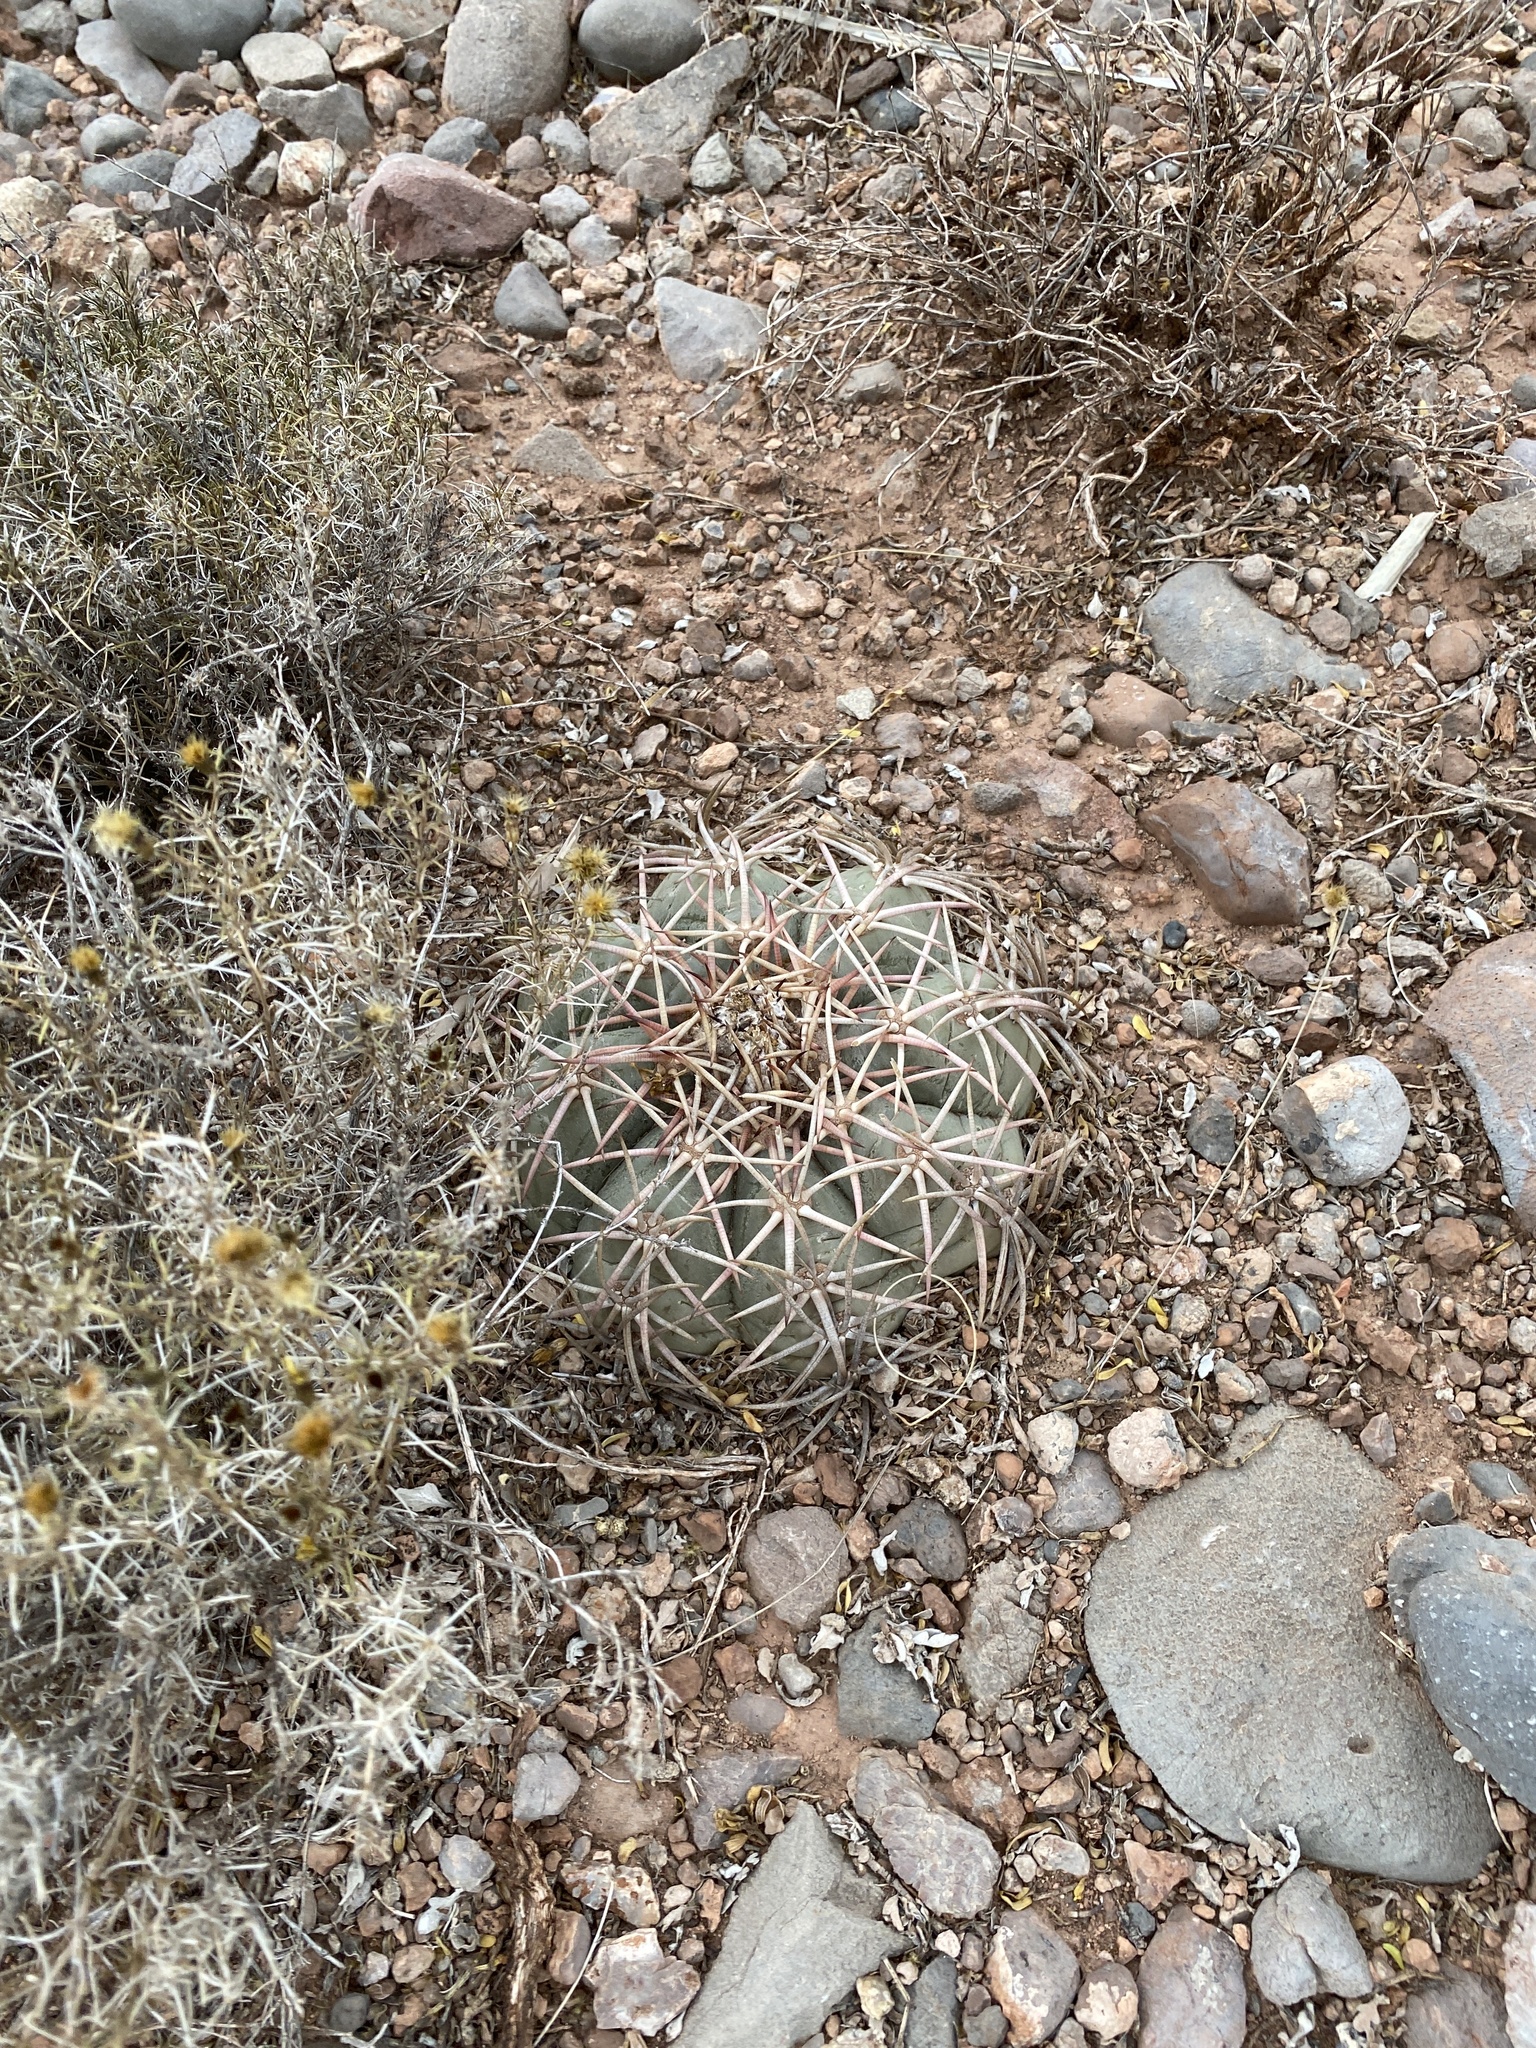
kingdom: Plantae
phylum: Tracheophyta
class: Magnoliopsida
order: Caryophyllales
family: Cactaceae
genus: Echinocactus
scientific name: Echinocactus horizonthalonius
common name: Devilshead
